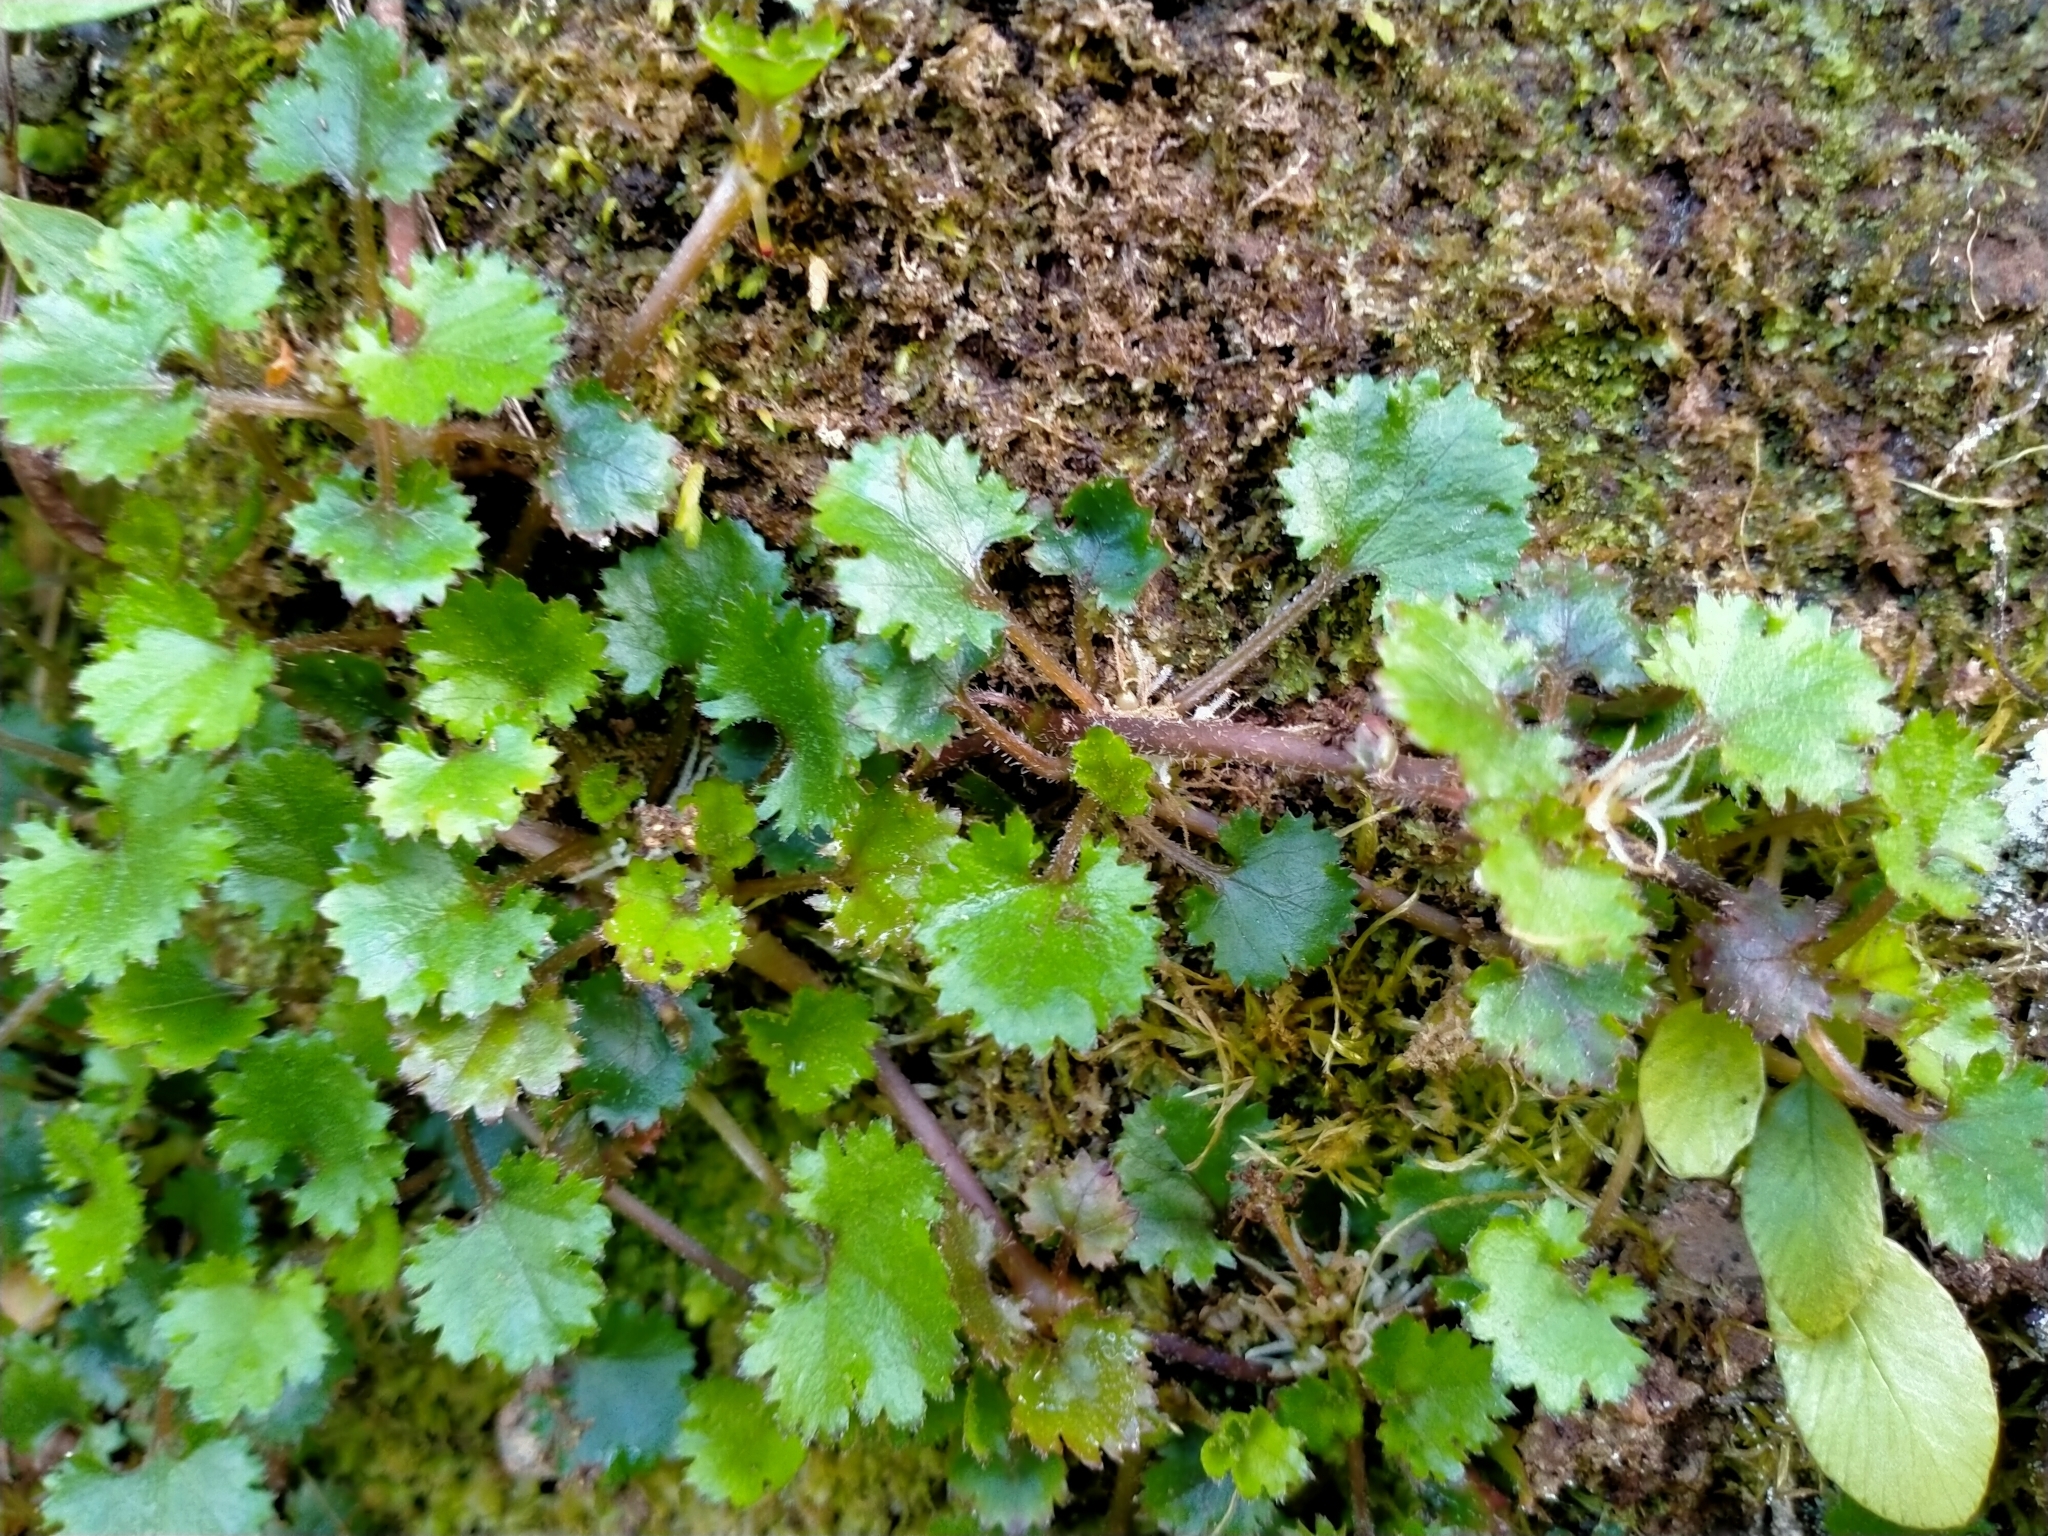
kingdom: Plantae
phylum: Tracheophyta
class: Magnoliopsida
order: Gunnerales
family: Gunneraceae
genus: Gunnera
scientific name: Gunnera monoica
